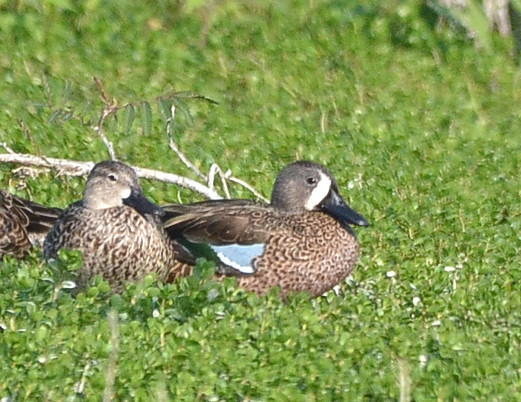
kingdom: Animalia
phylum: Chordata
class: Aves
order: Anseriformes
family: Anatidae
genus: Spatula
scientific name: Spatula discors
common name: Blue-winged teal
